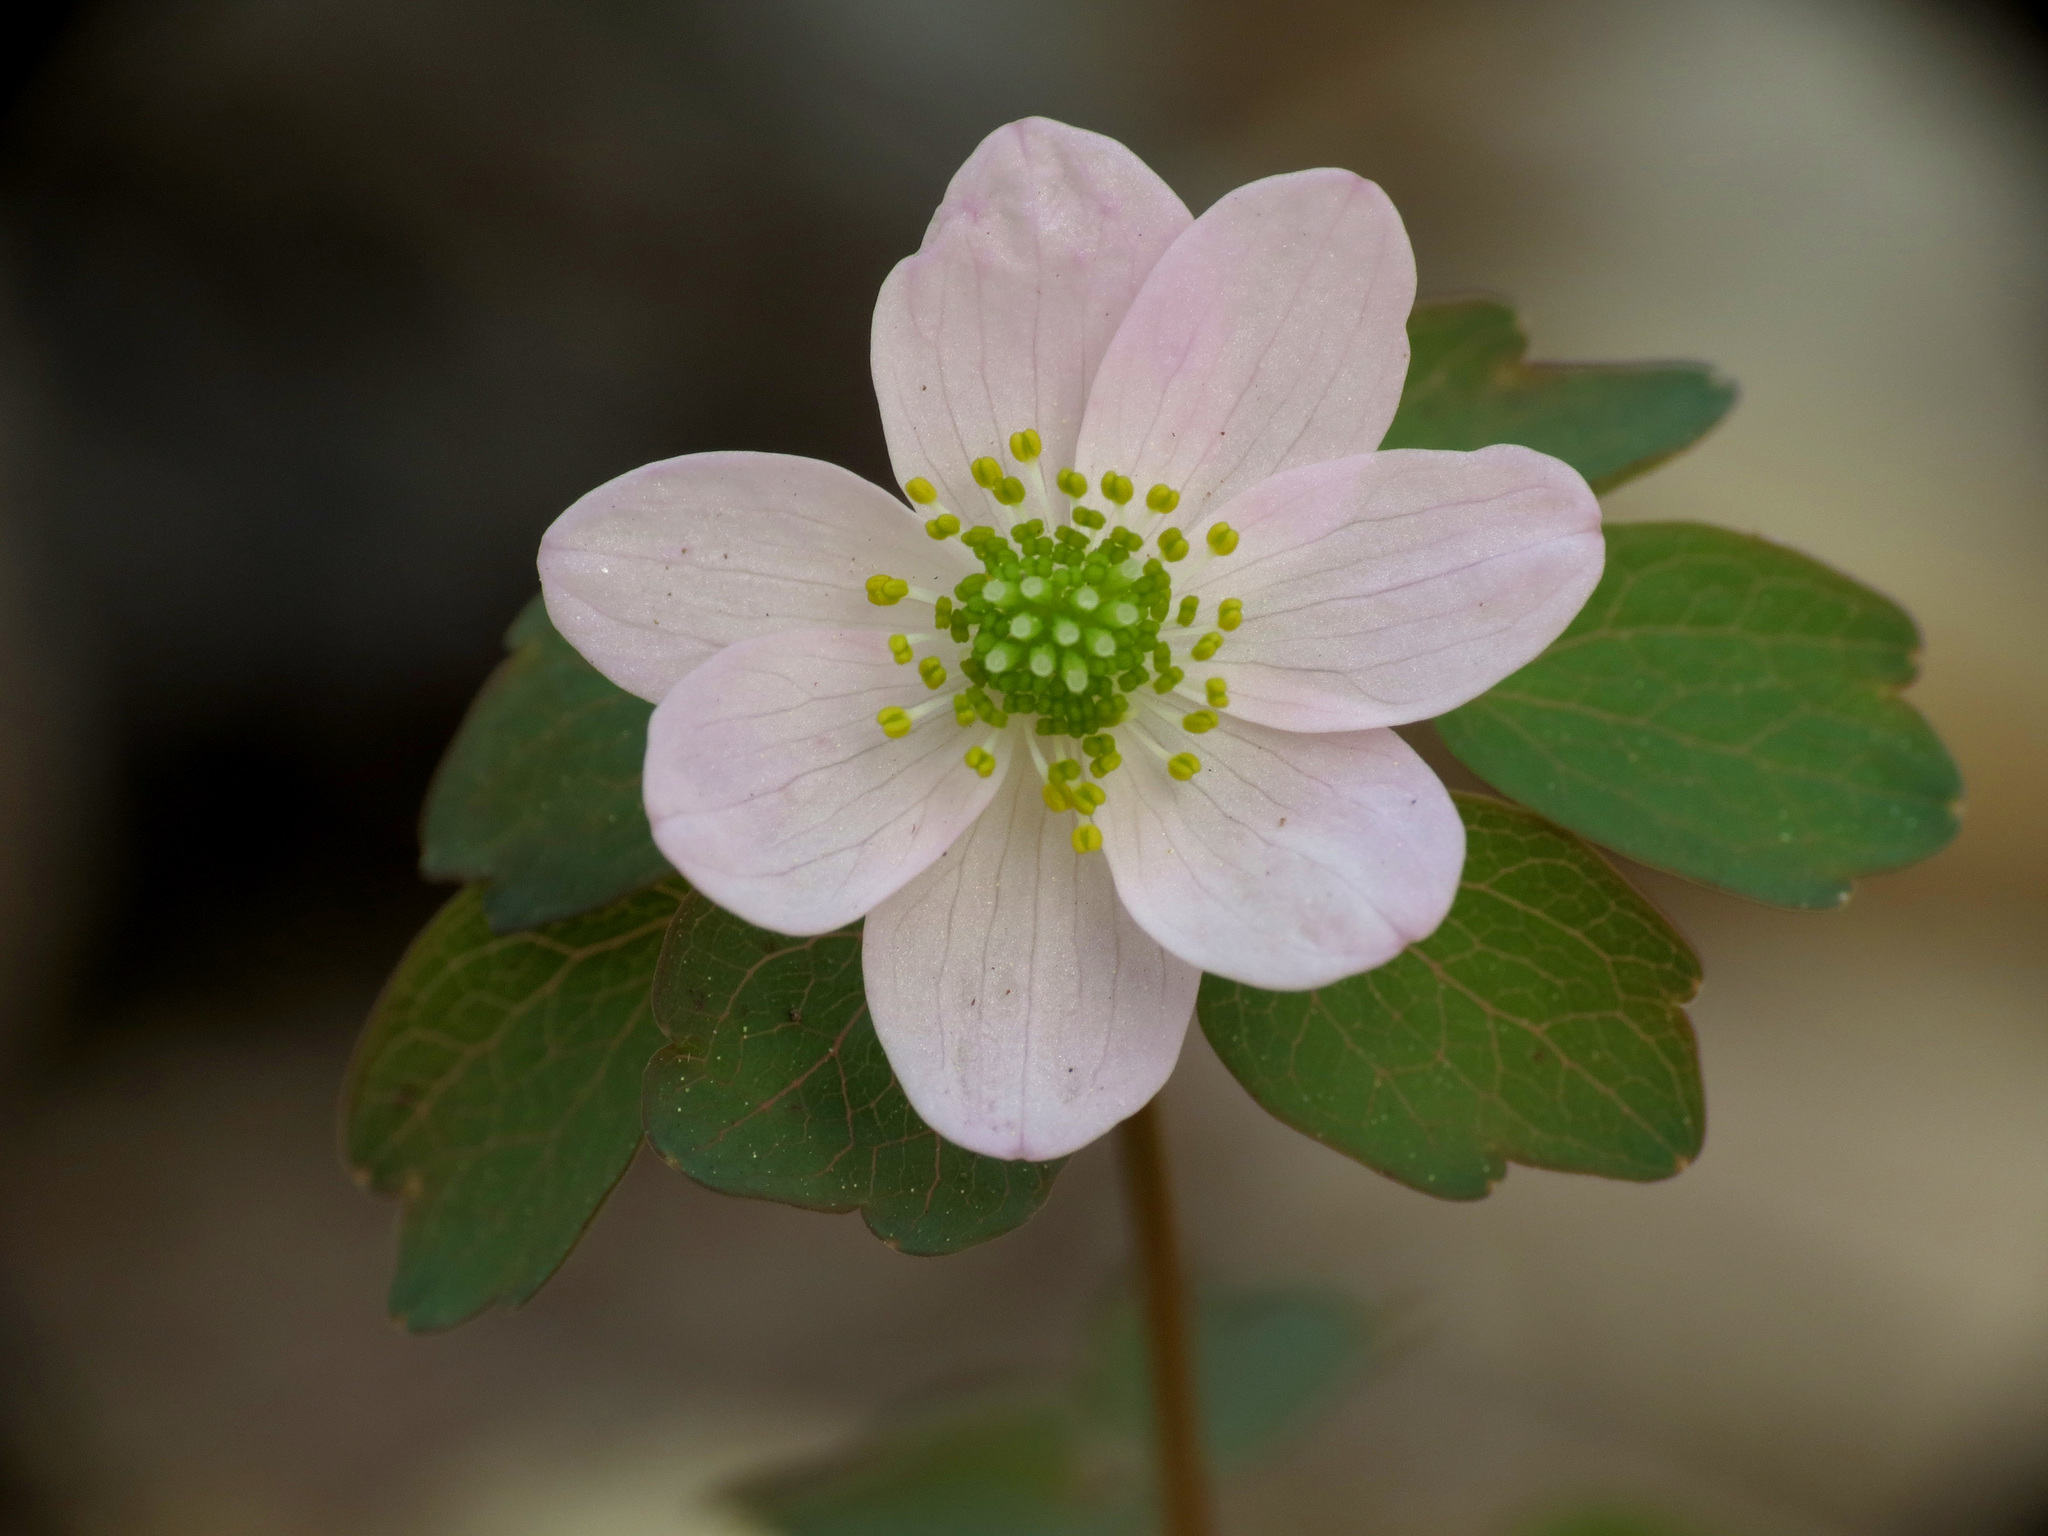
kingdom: Plantae
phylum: Tracheophyta
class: Magnoliopsida
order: Ranunculales
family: Ranunculaceae
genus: Thalictrum
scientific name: Thalictrum thalictroides
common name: Rue-anemone
